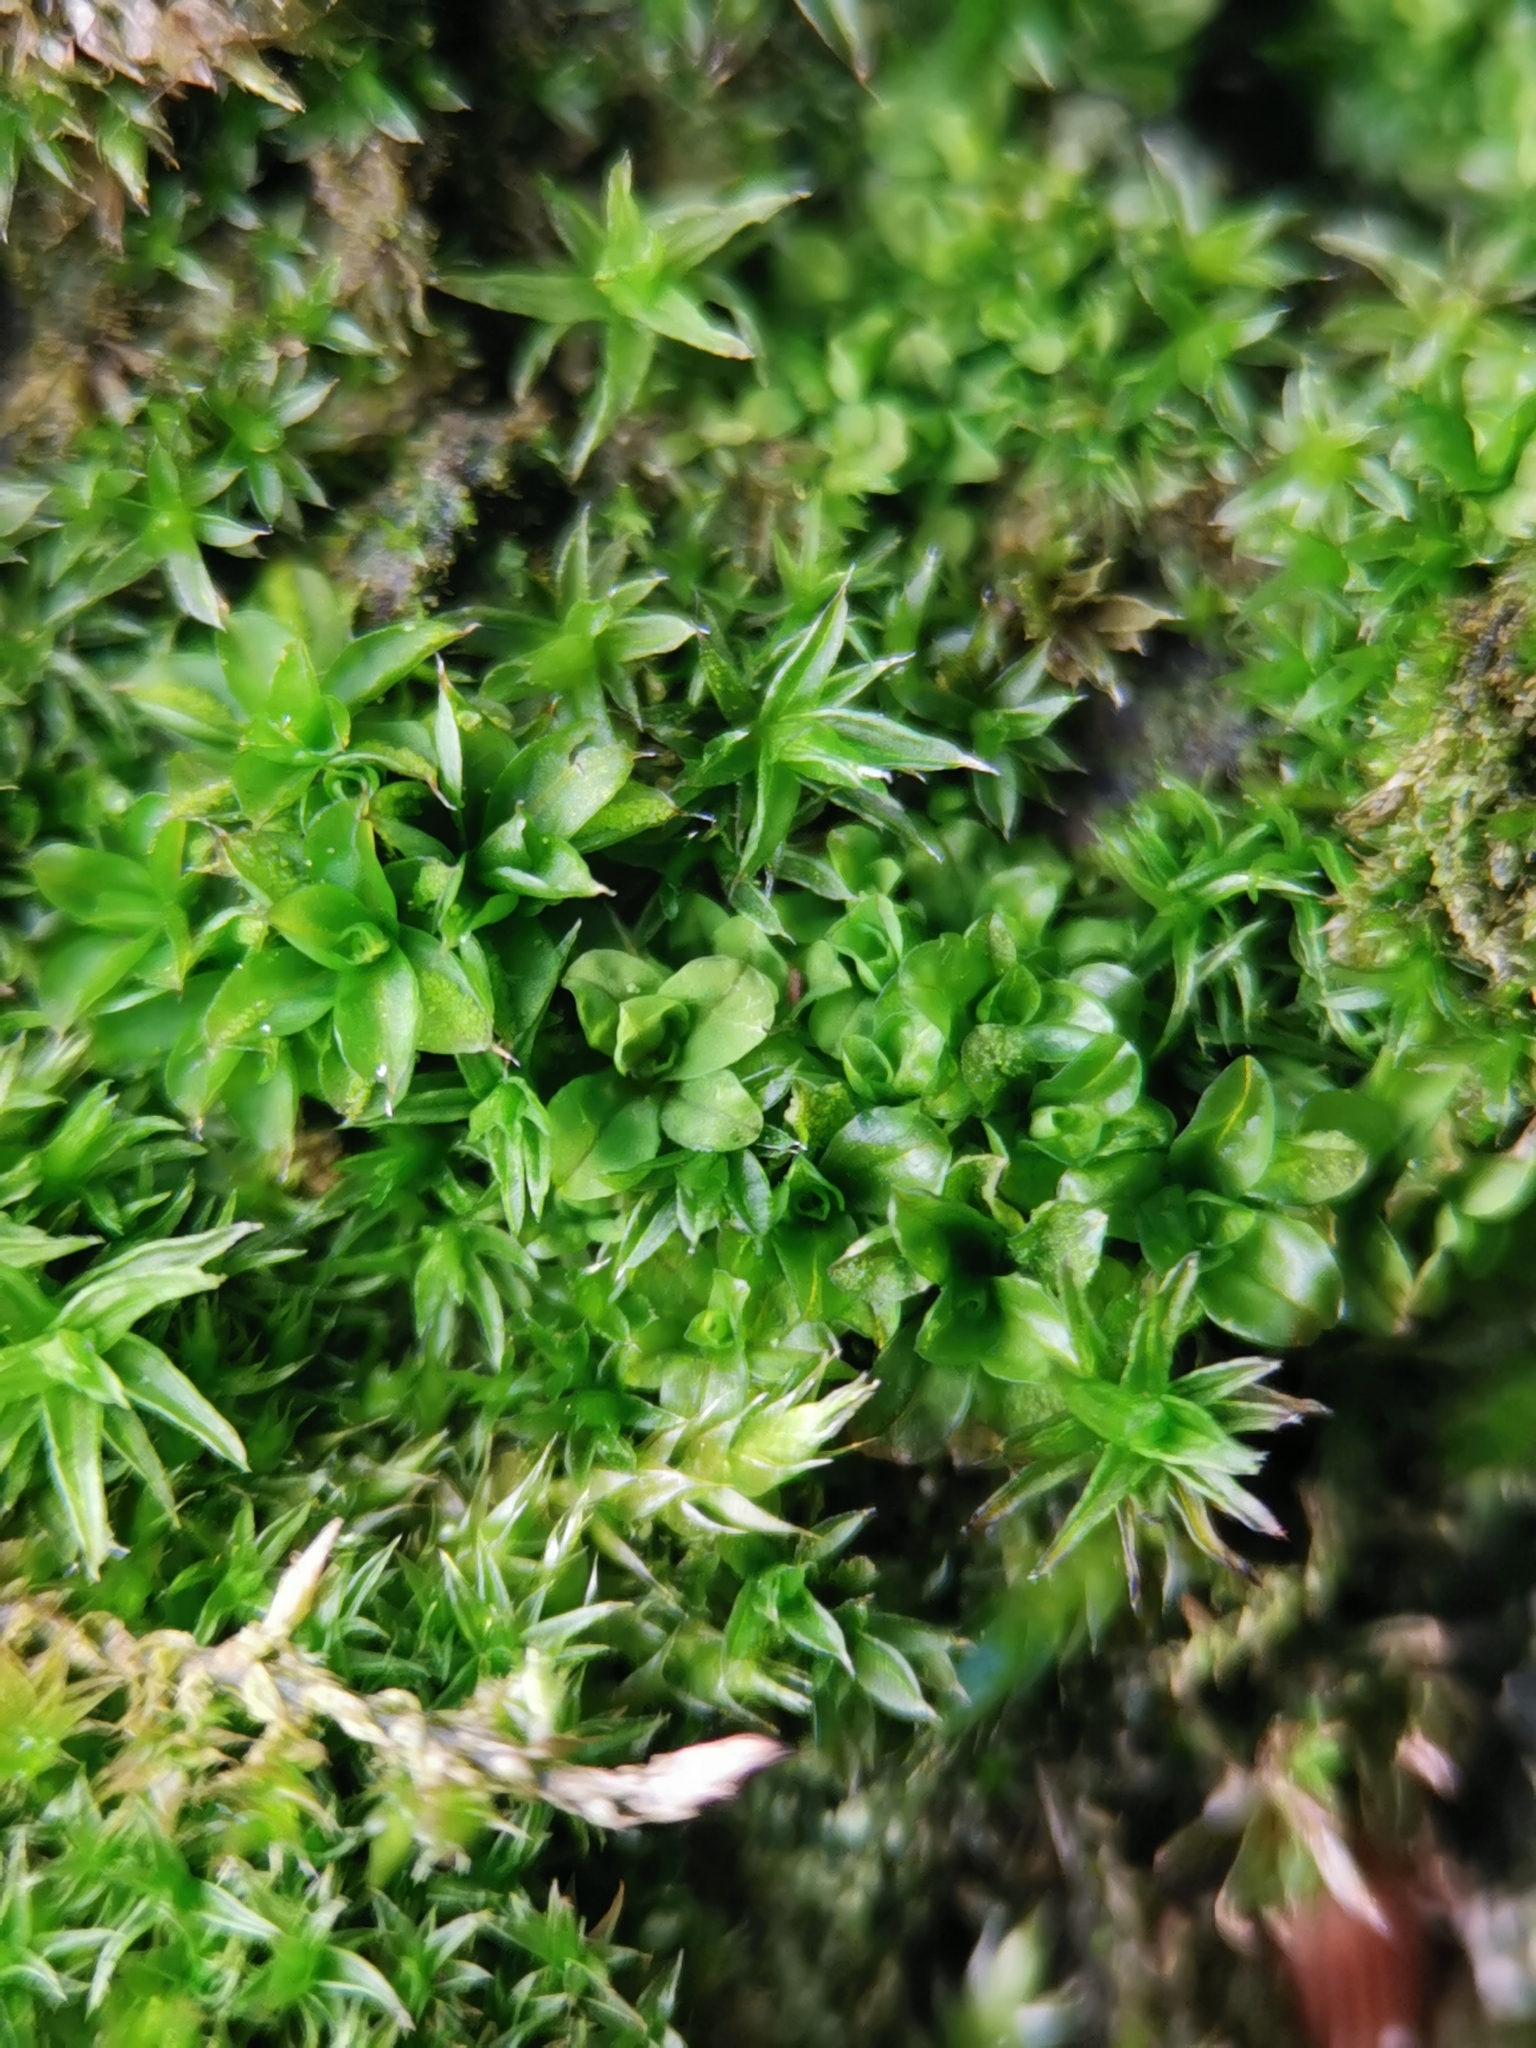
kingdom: Plantae
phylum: Bryophyta
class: Bryopsida
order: Pottiales
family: Pottiaceae
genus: Syntrichia
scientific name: Syntrichia papillosa
